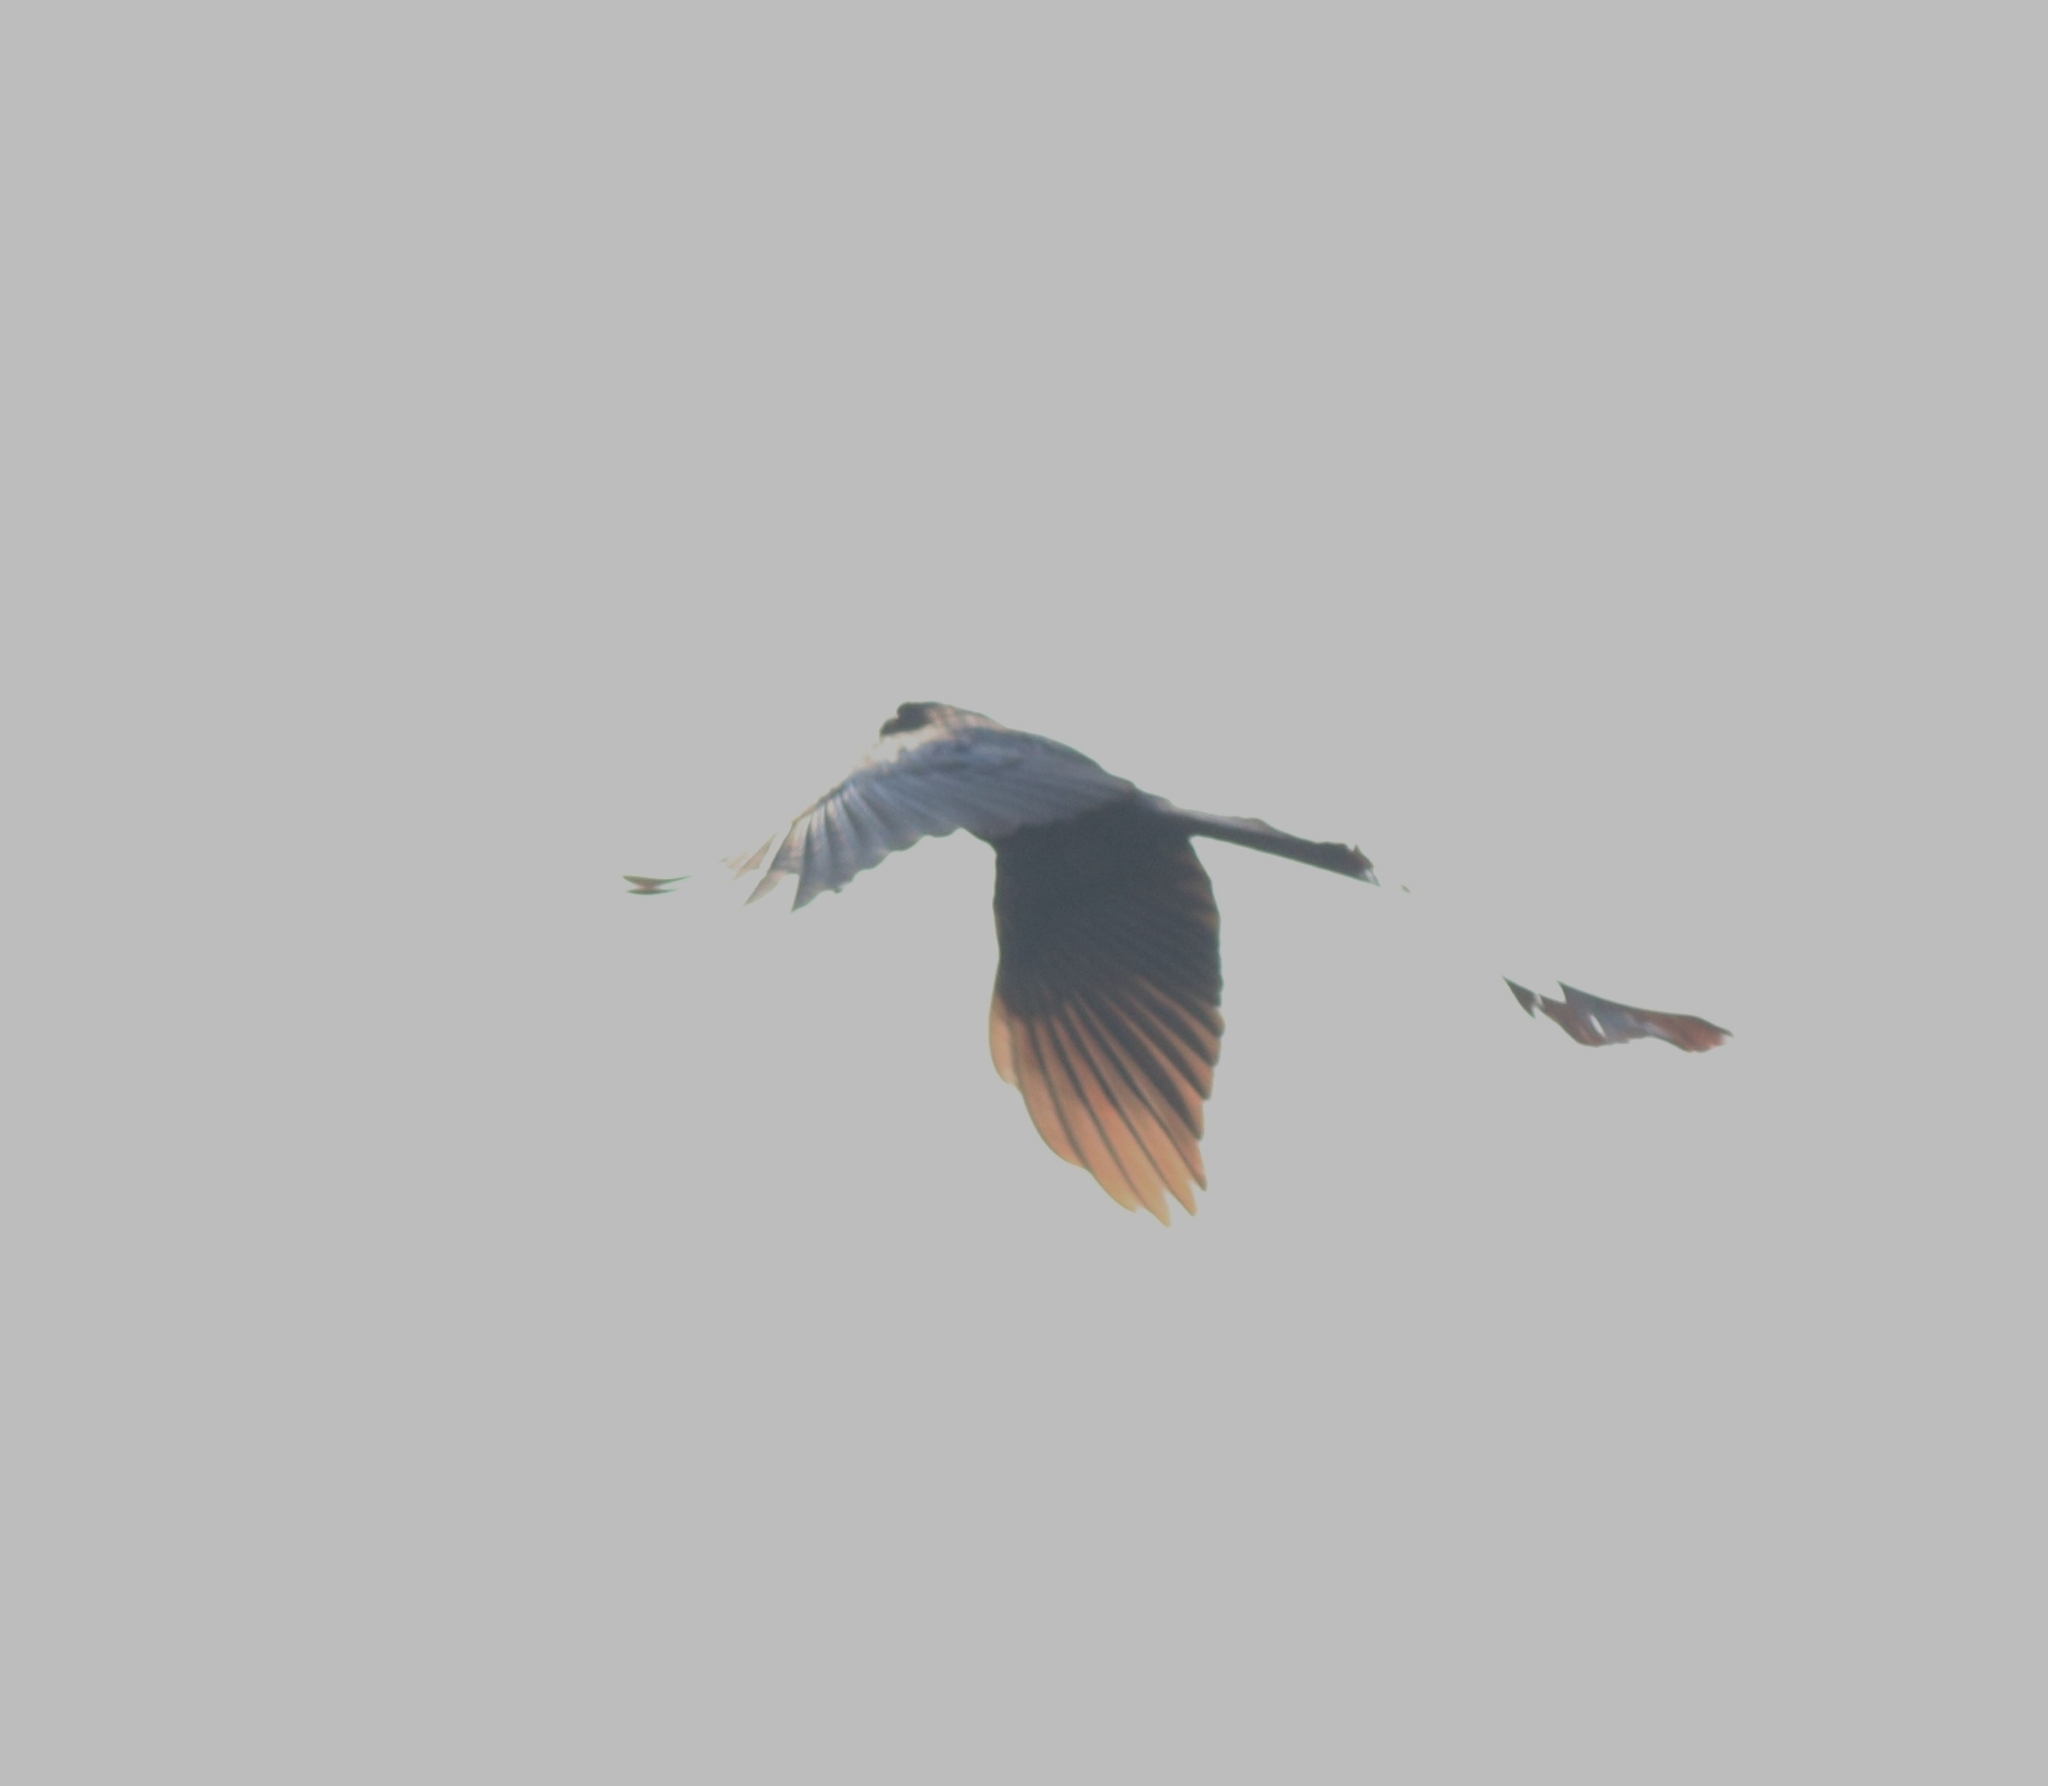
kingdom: Animalia
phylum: Chordata
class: Aves
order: Passeriformes
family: Corvidae
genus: Corvus
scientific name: Corvus splendens
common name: House crow
